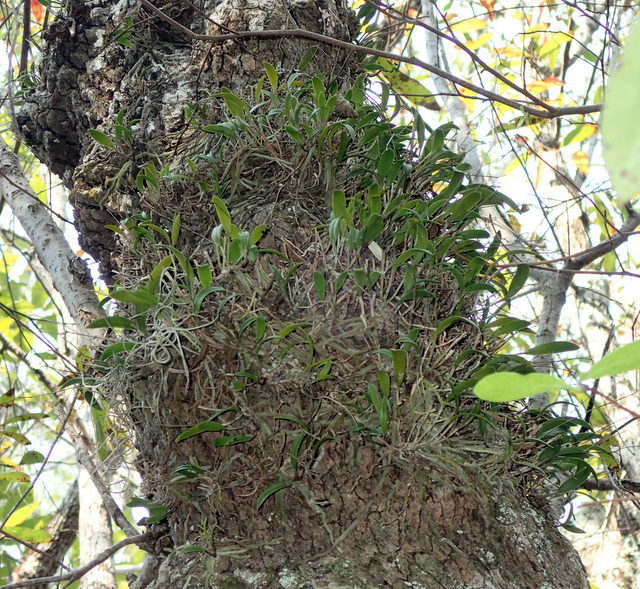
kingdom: Plantae
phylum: Tracheophyta
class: Liliopsida
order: Asparagales
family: Orchidaceae
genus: Epidendrum
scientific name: Epidendrum conopseum
